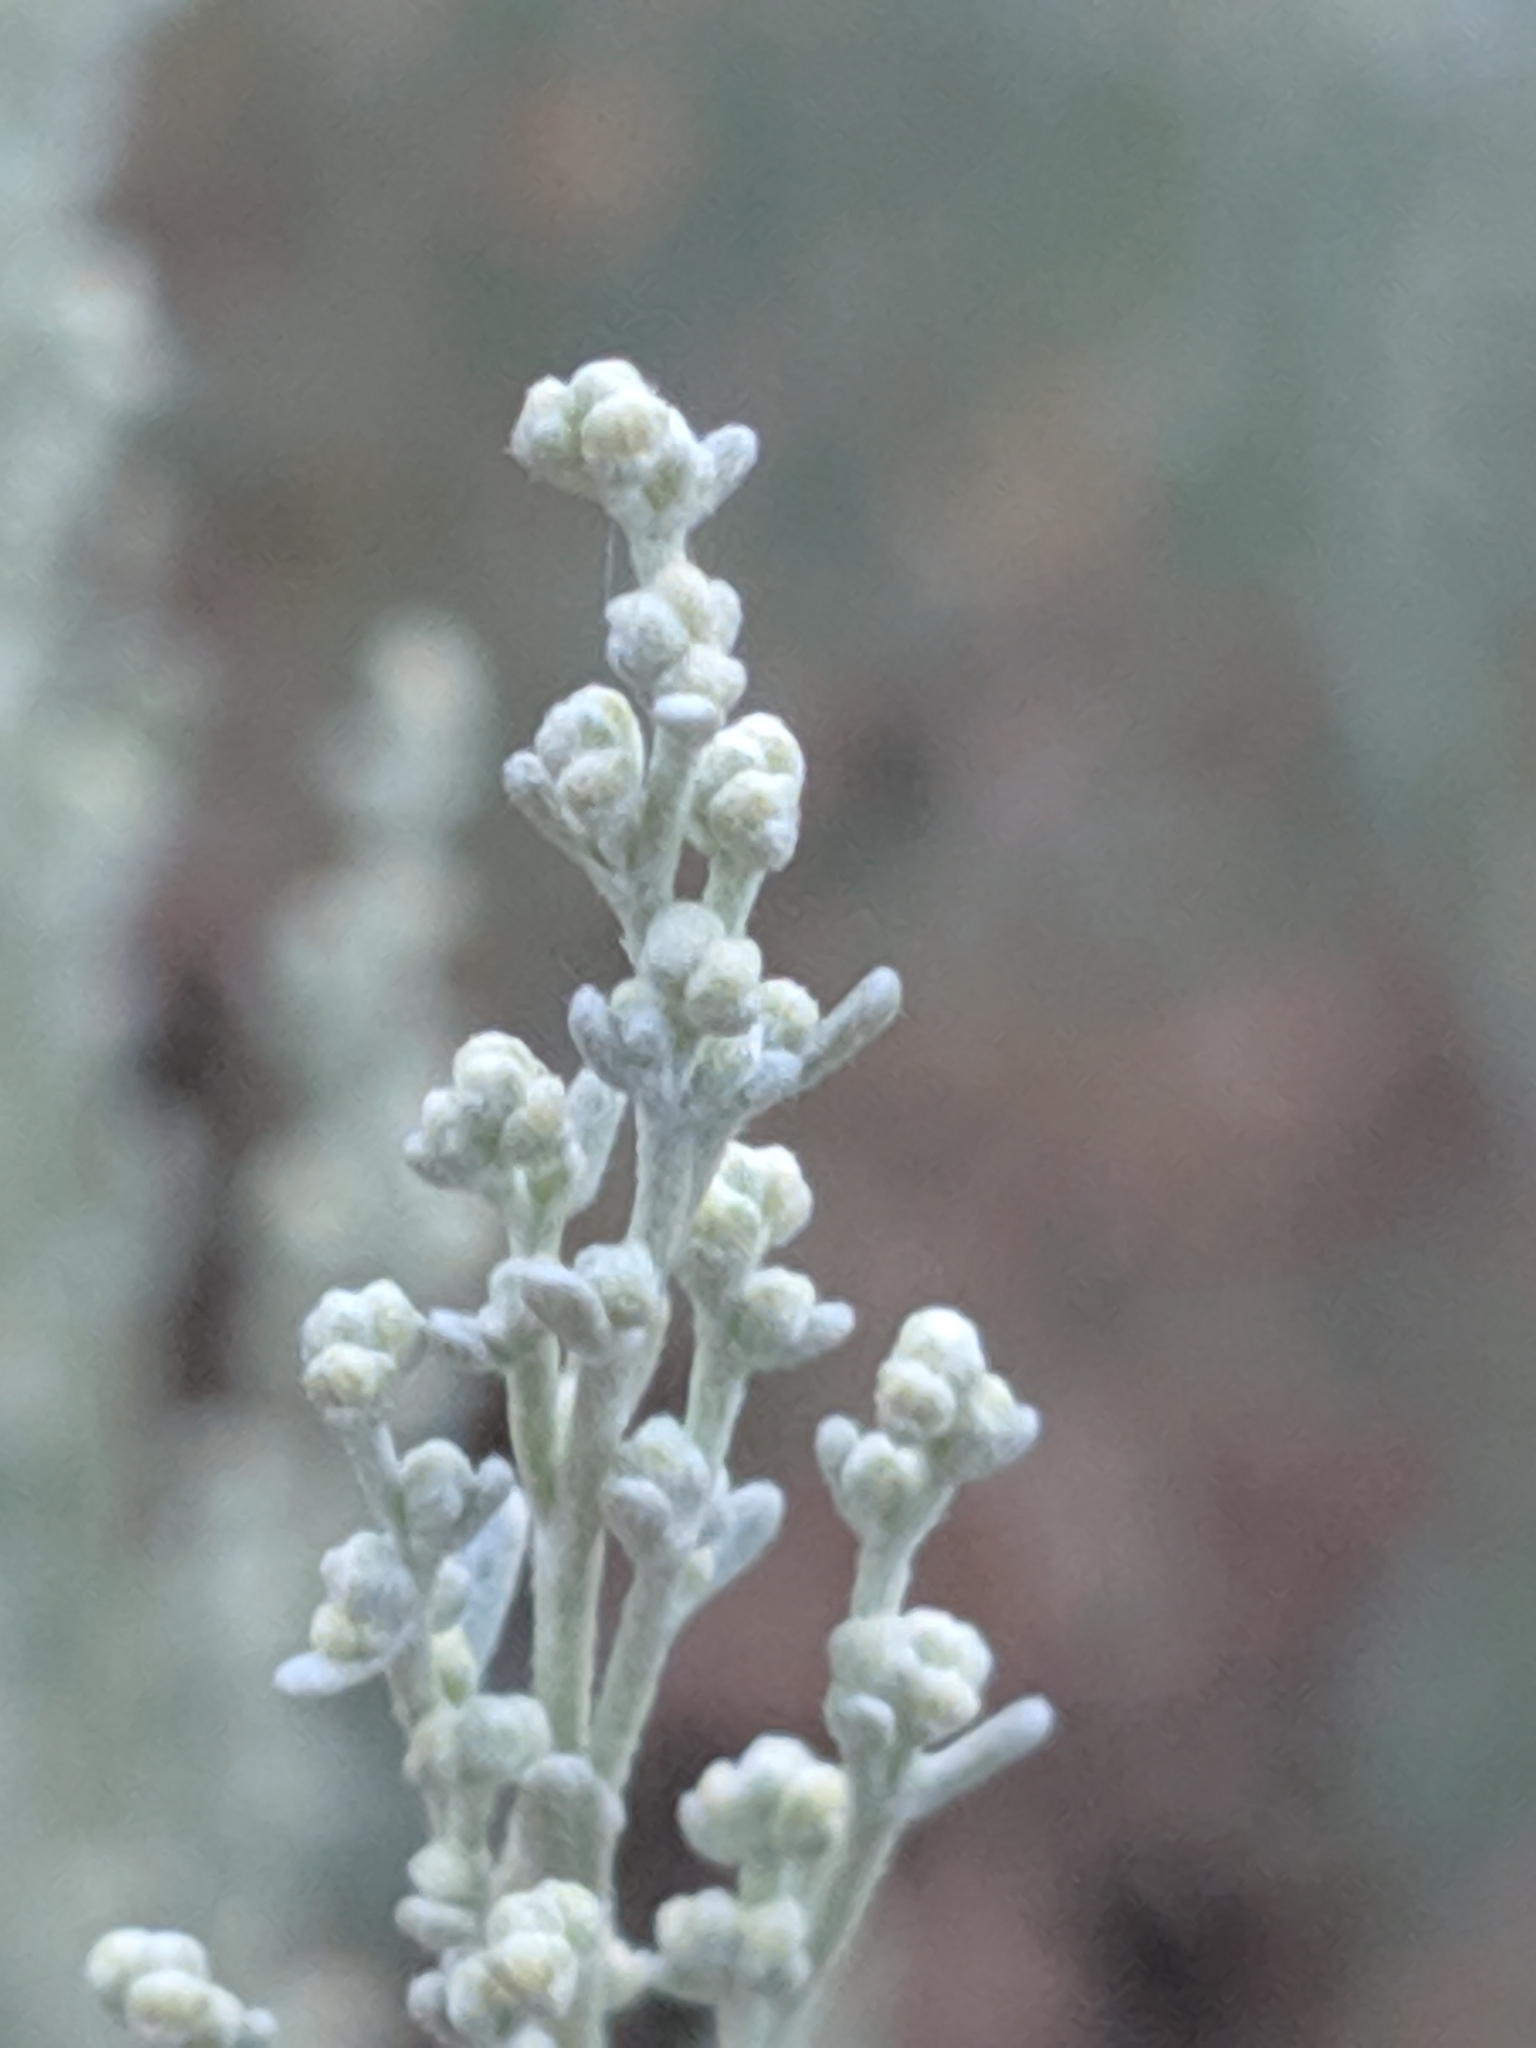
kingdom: Plantae
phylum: Tracheophyta
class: Magnoliopsida
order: Asterales
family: Asteraceae
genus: Artemisia
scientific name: Artemisia tridentata
